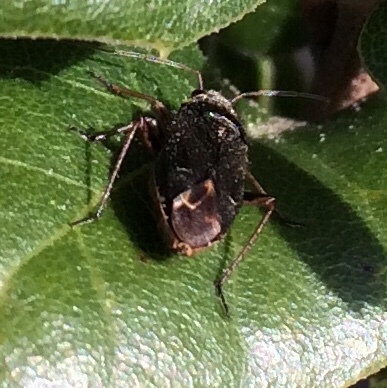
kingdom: Animalia
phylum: Arthropoda
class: Insecta
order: Hemiptera
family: Miridae
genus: Irbisia
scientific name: Irbisia
